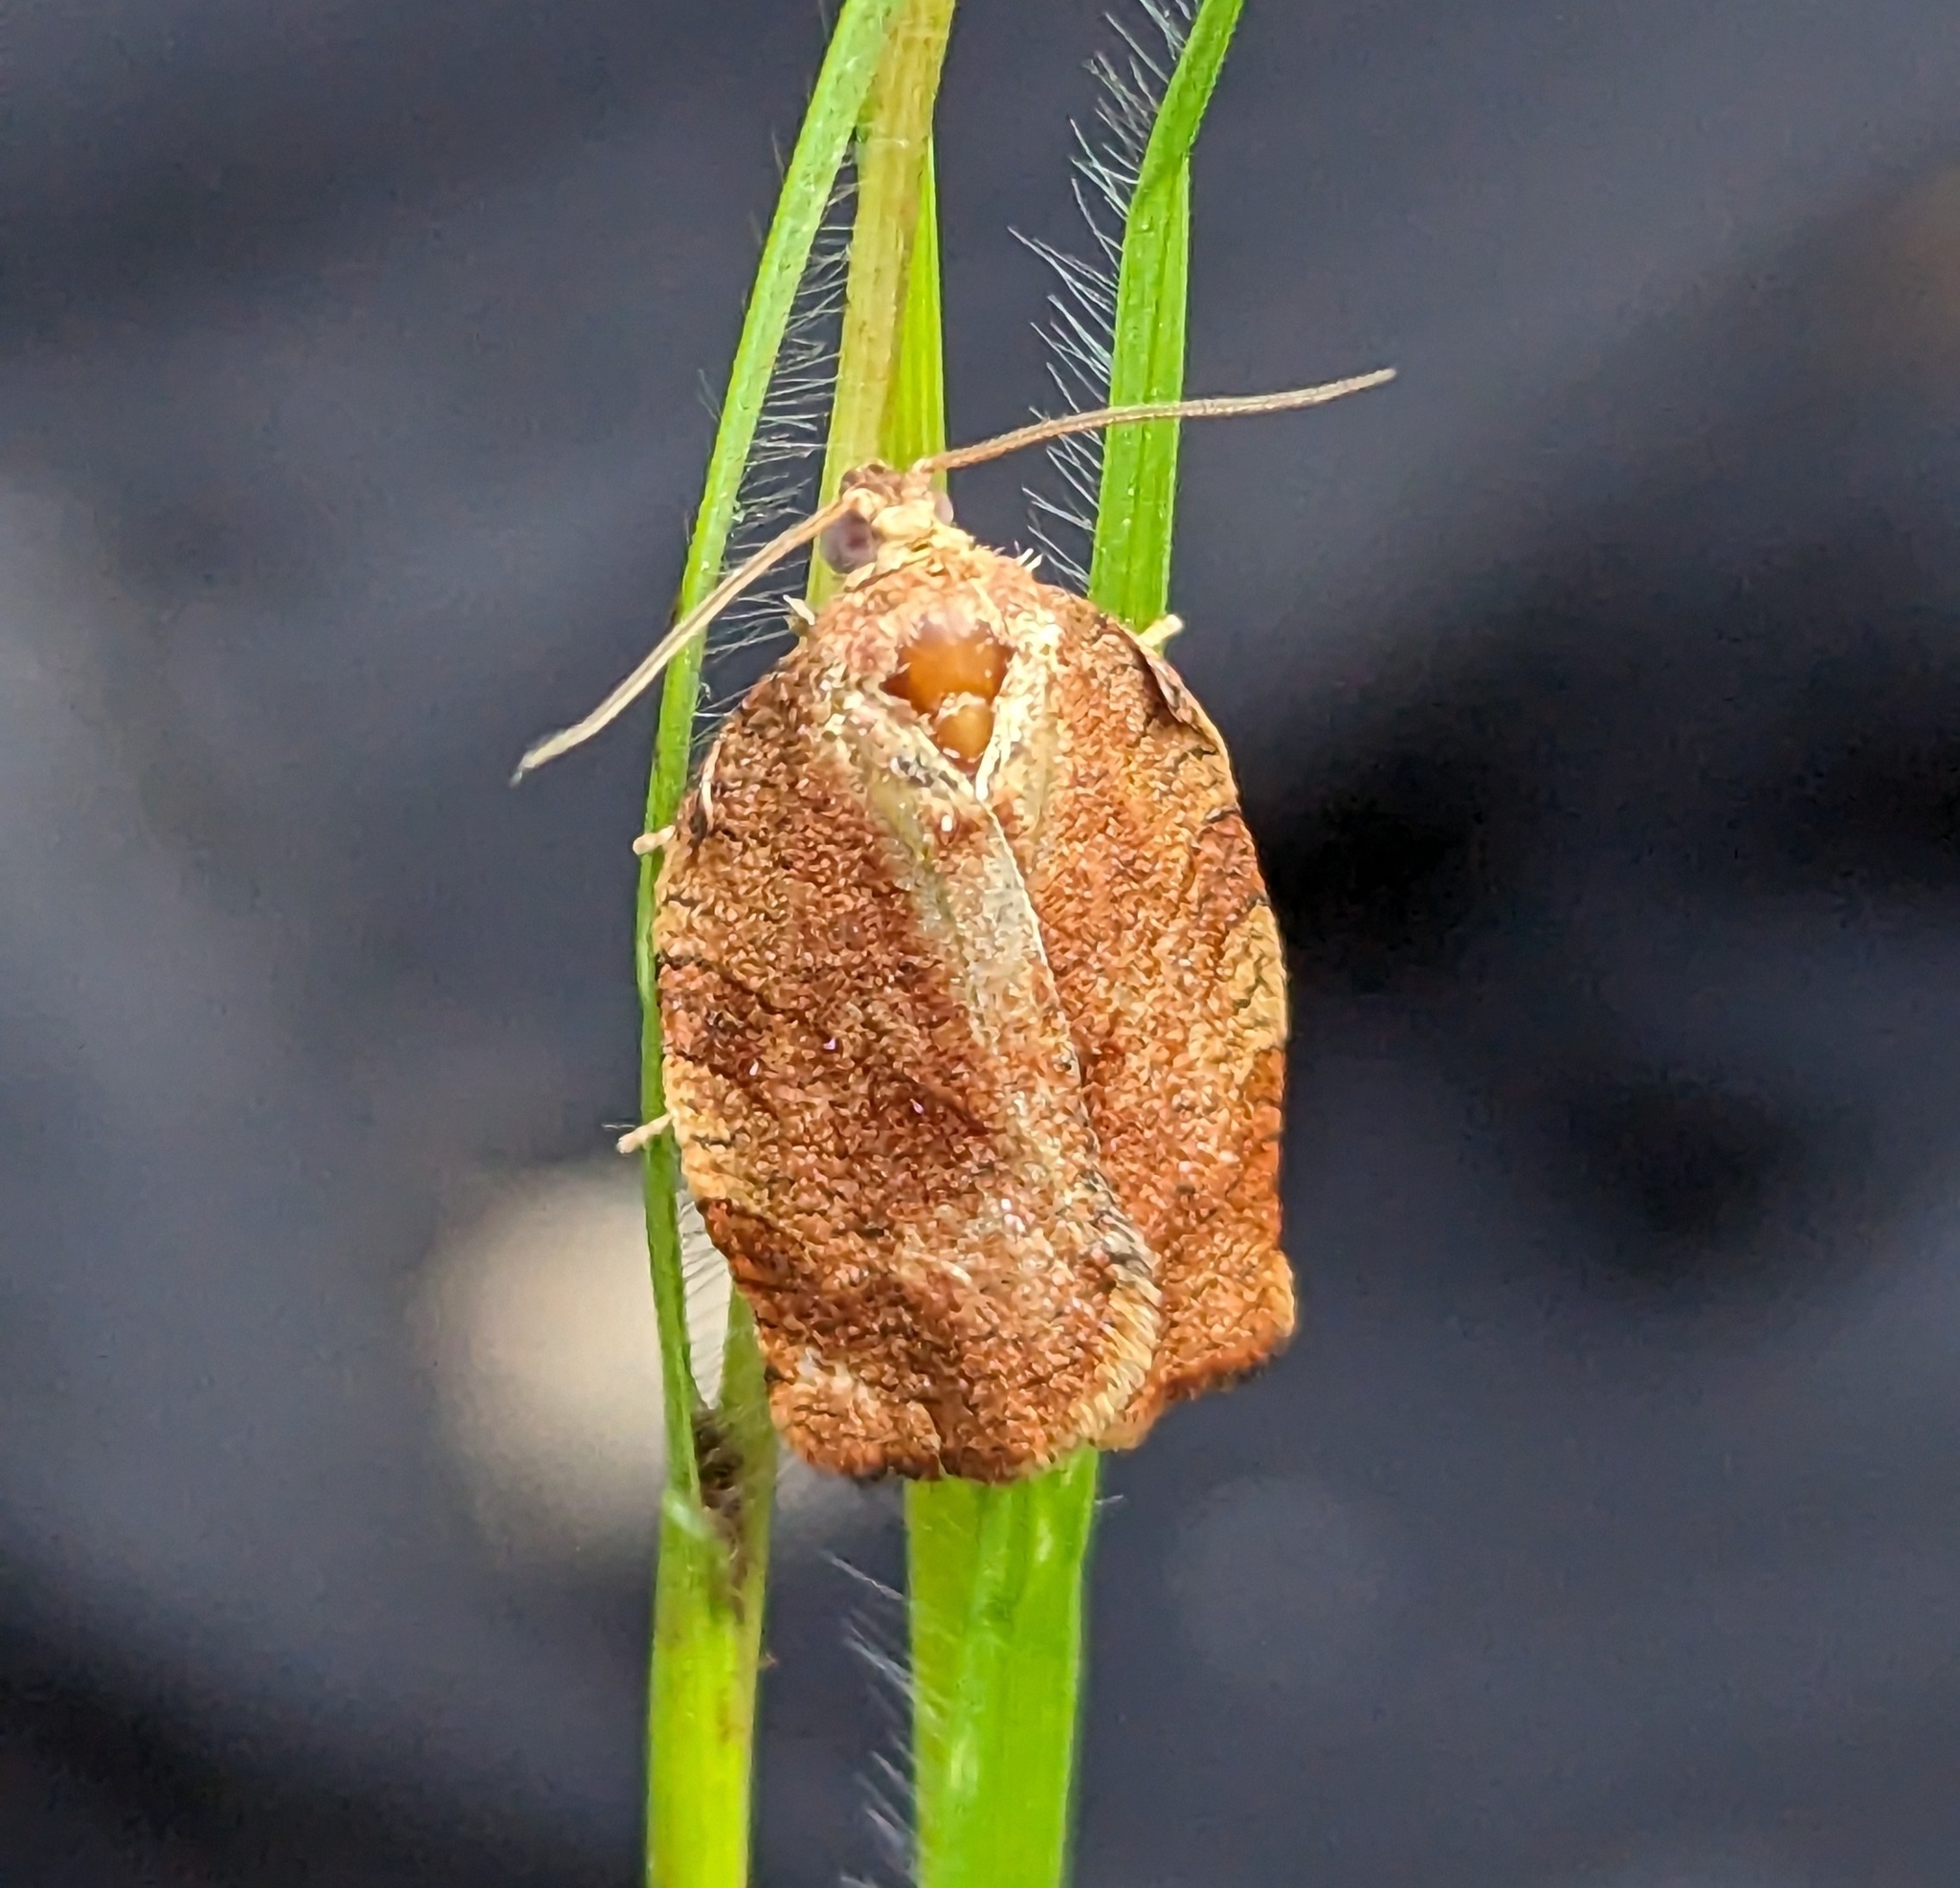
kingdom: Animalia
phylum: Arthropoda
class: Insecta
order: Lepidoptera
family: Tortricidae
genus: Choristoneura
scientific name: Choristoneura rosaceana
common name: Oblique-banded leafroller moth
